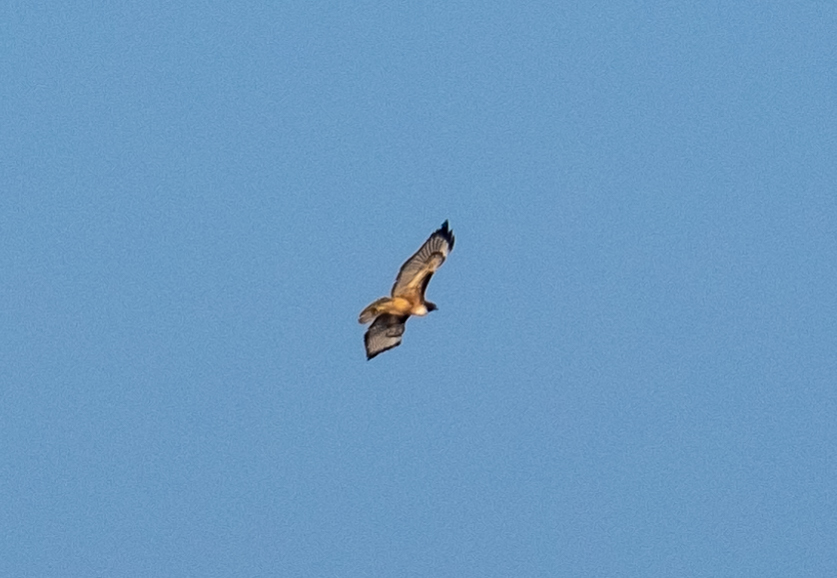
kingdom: Animalia
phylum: Chordata
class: Aves
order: Accipitriformes
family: Accipitridae
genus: Buteo
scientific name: Buteo jamaicensis
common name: Red-tailed hawk
